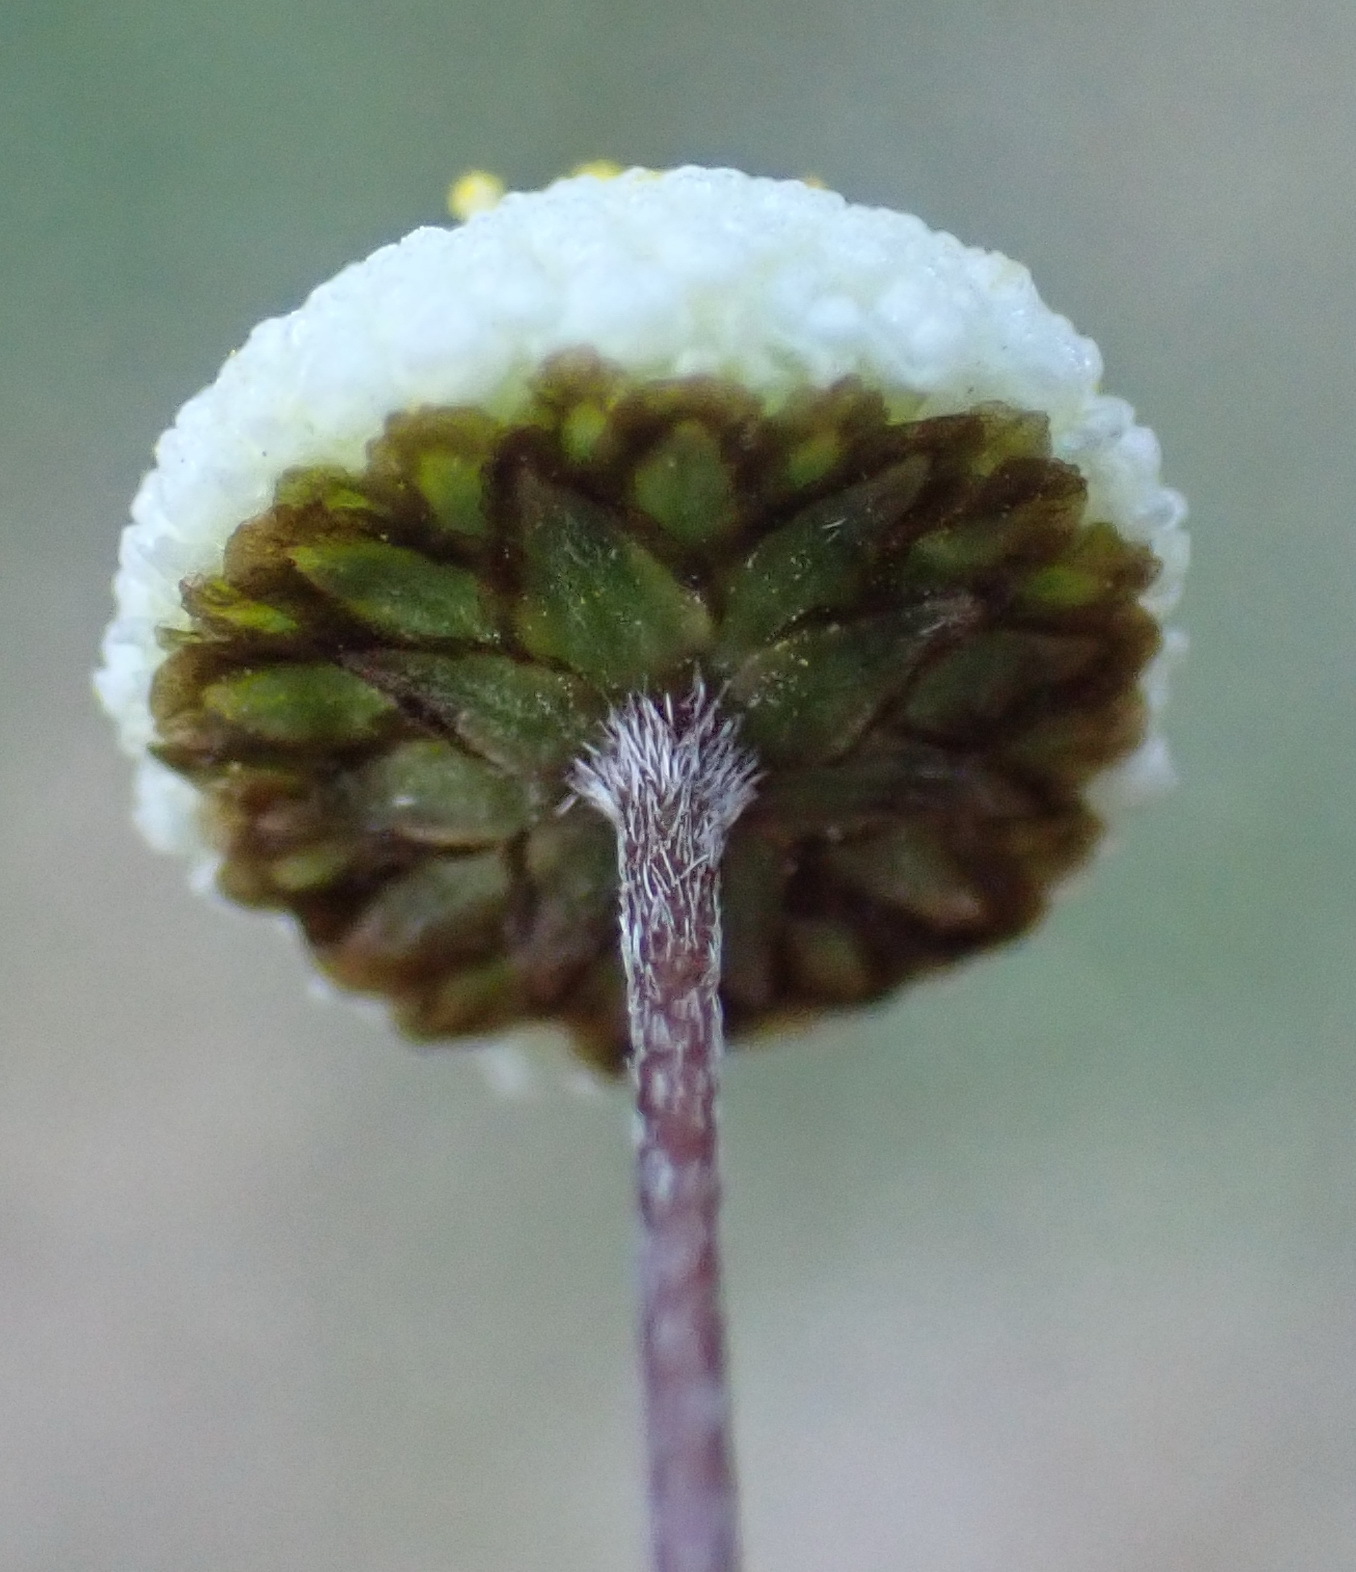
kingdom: Plantae
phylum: Tracheophyta
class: Magnoliopsida
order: Asterales
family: Asteraceae
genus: Cotula
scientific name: Cotula laxa
